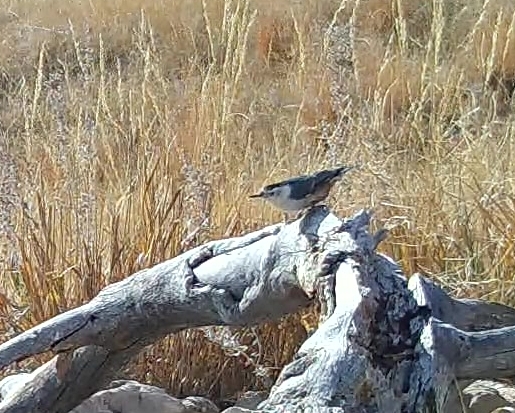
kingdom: Animalia
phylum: Chordata
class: Aves
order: Passeriformes
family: Sittidae
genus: Sitta
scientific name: Sitta carolinensis
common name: White-breasted nuthatch
